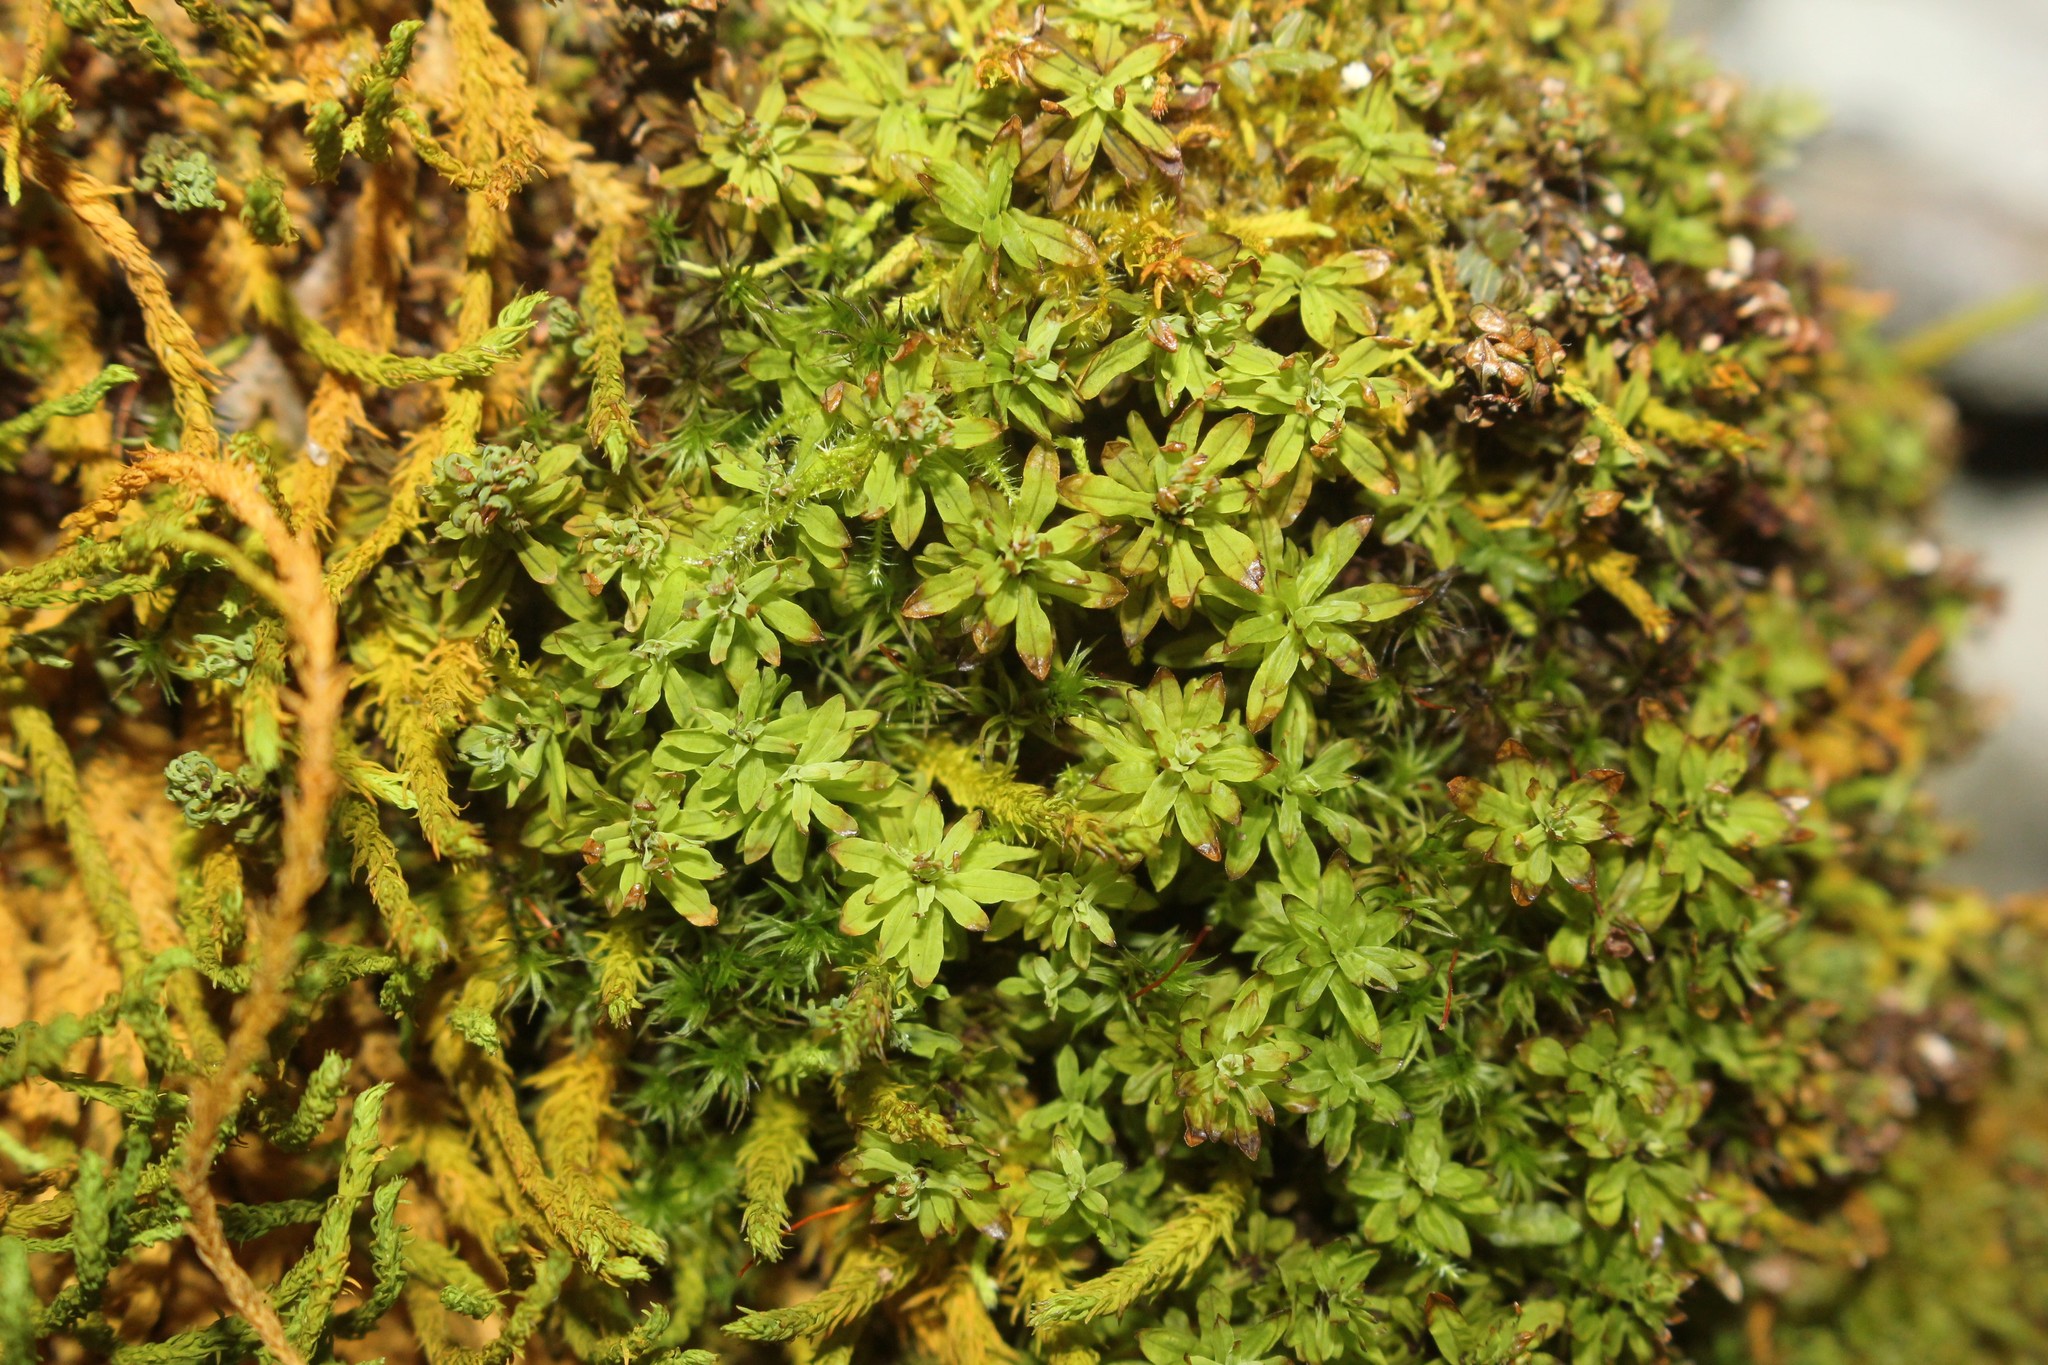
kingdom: Plantae
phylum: Bryophyta
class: Bryopsida
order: Encalyptales
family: Encalyptaceae
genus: Encalypta
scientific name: Encalypta procera
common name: Spiral extinguisher moss
